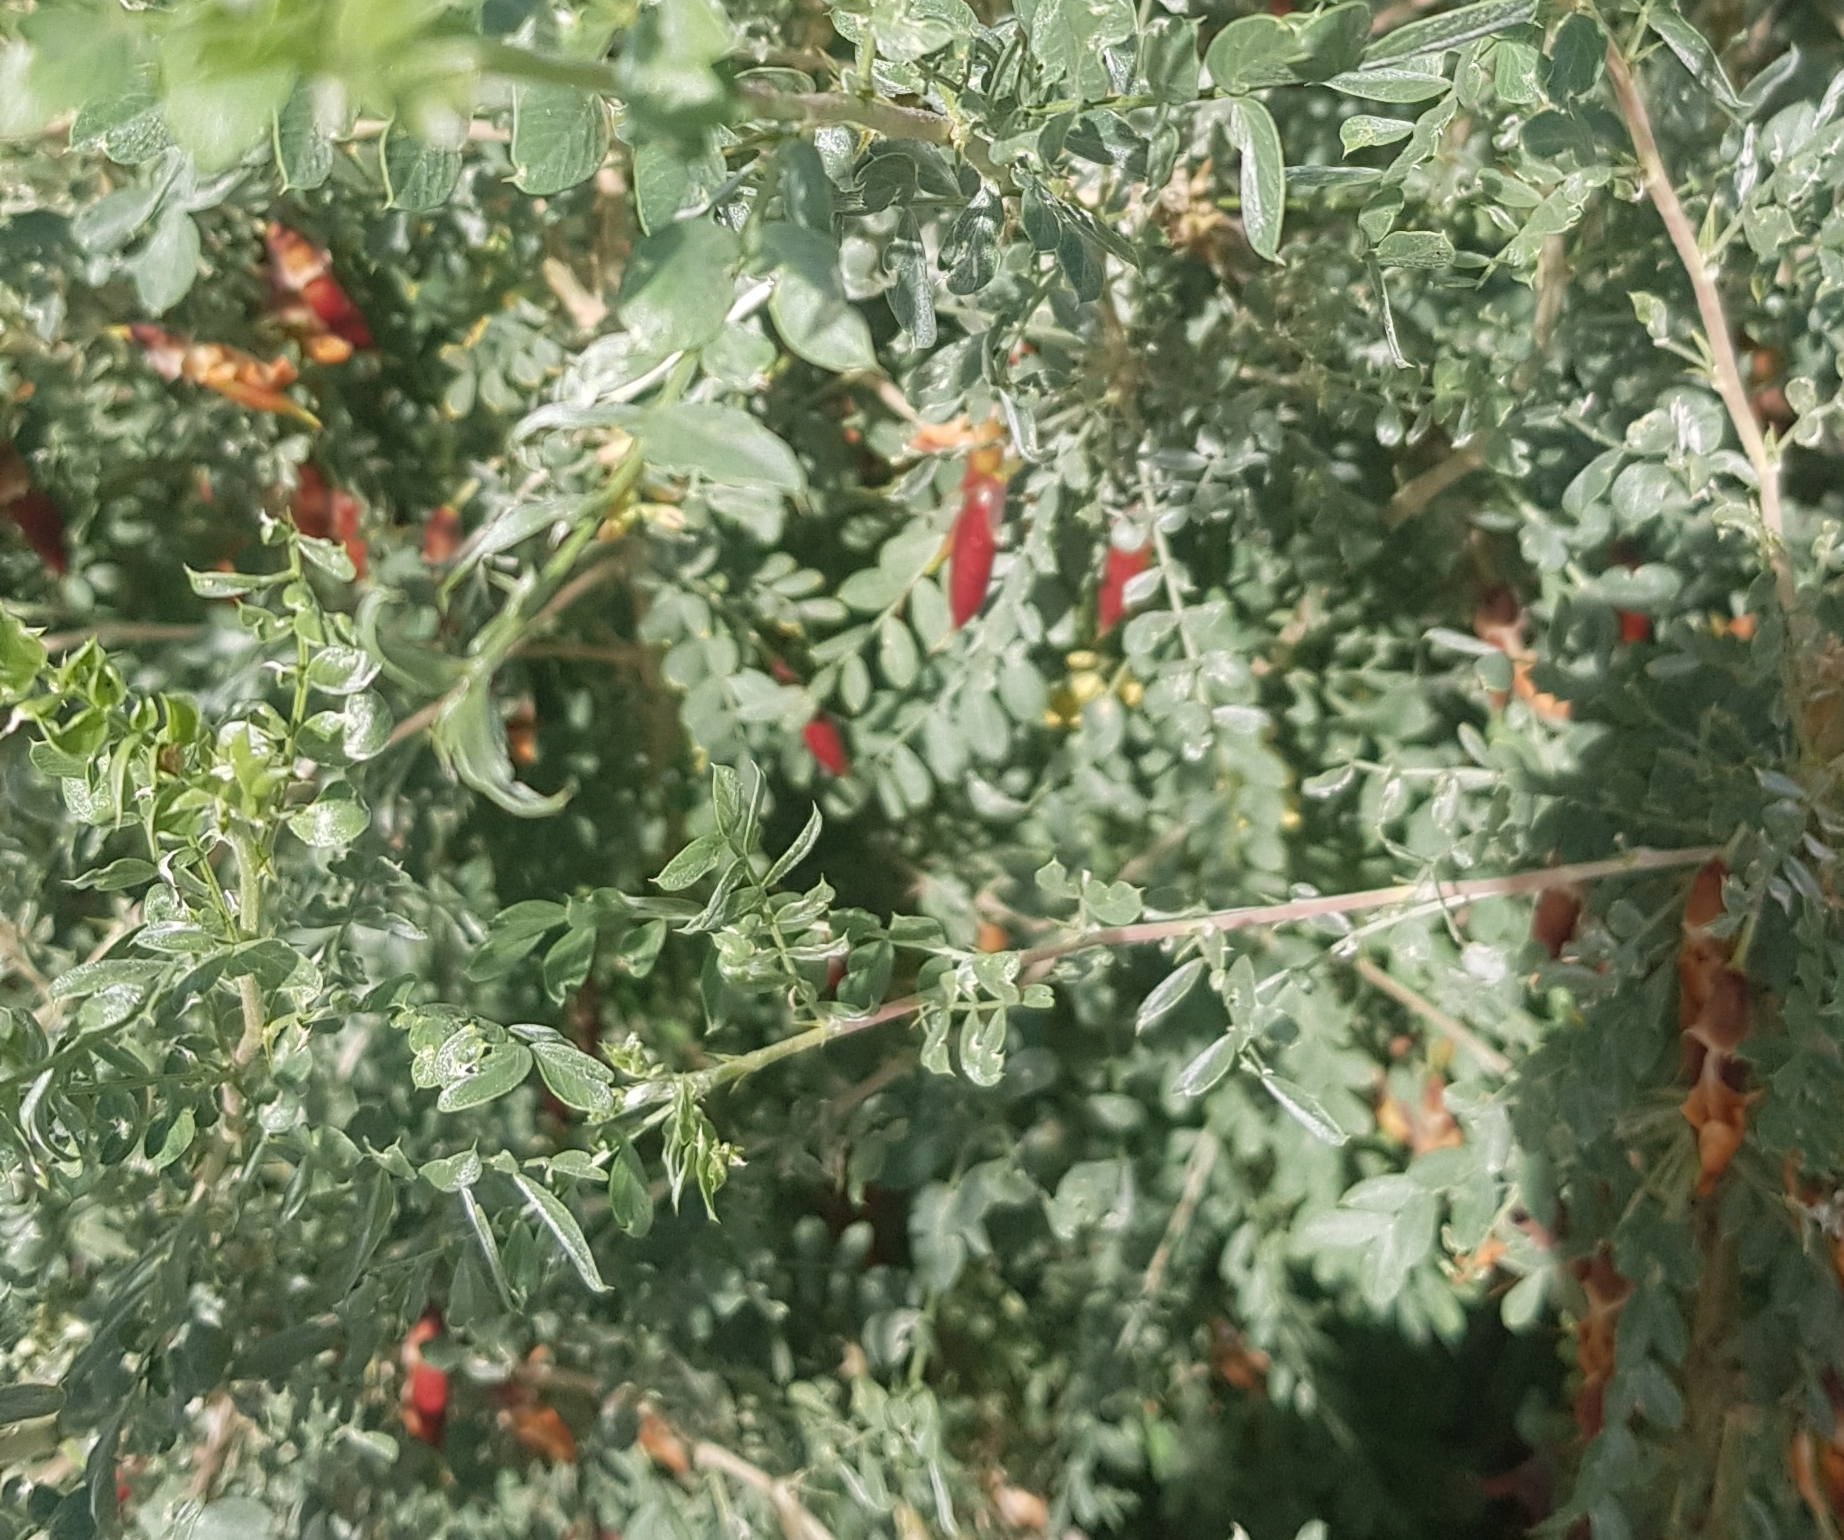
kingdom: Plantae
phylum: Tracheophyta
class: Magnoliopsida
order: Fabales
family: Fabaceae
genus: Caragana
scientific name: Caragana arborescens
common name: Siberian peashrub
